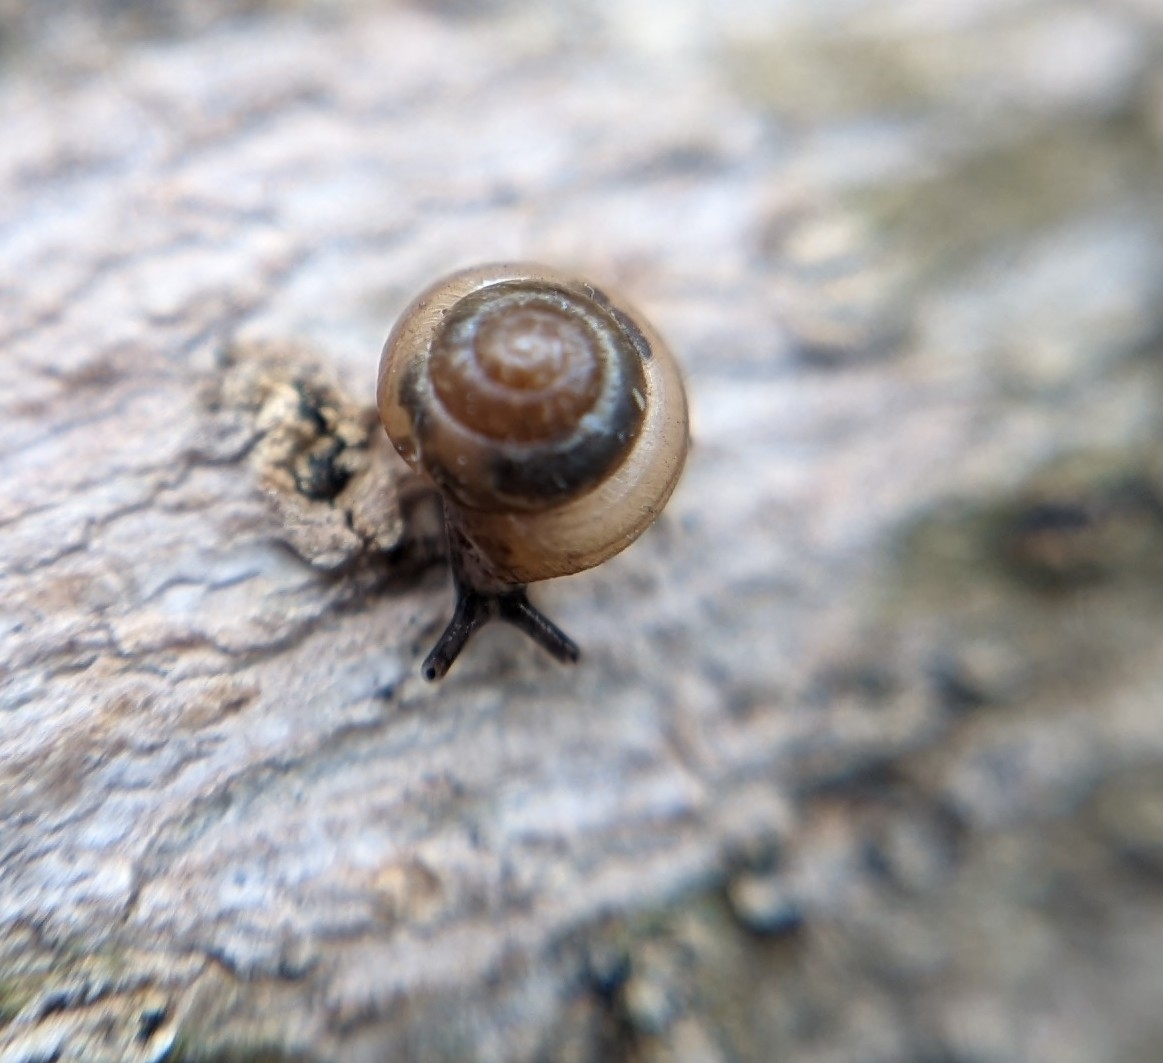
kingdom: Animalia
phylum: Mollusca
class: Gastropoda
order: Stylommatophora
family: Euconulidae
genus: Coneuplecta
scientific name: Coneuplecta calculosa
